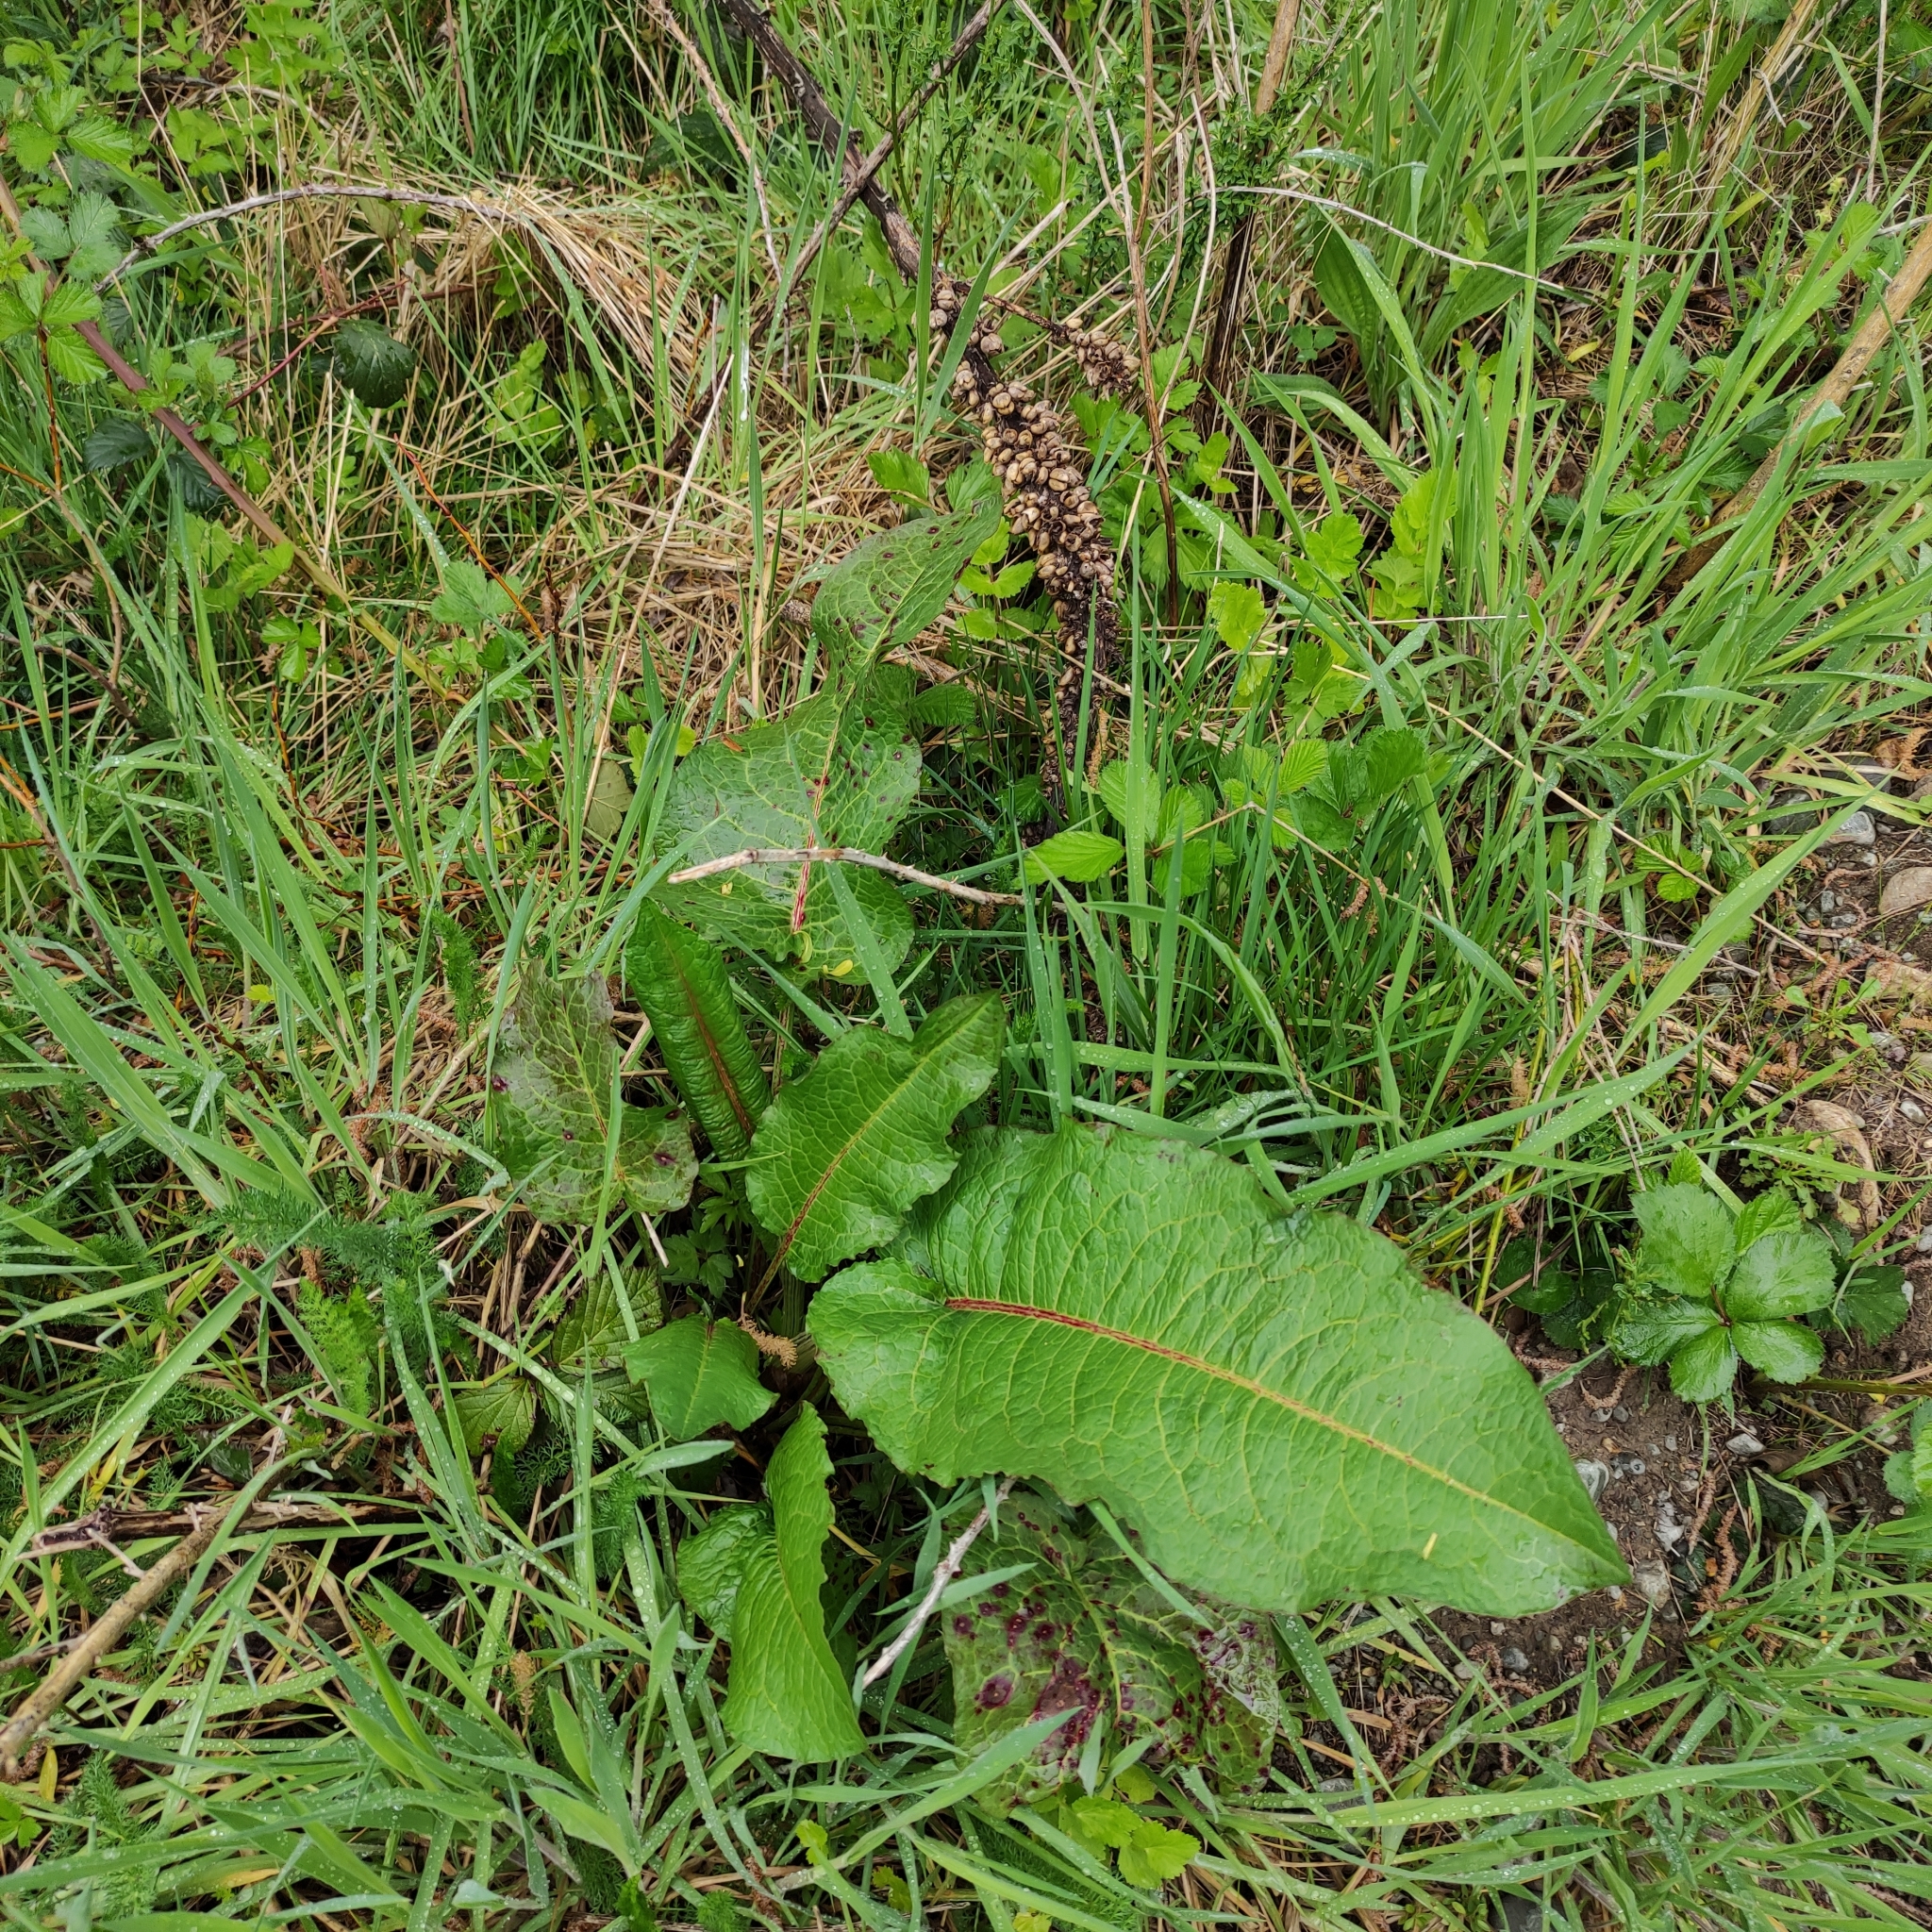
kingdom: Plantae
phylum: Tracheophyta
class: Magnoliopsida
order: Caryophyllales
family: Polygonaceae
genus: Rumex
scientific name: Rumex obtusifolius
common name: Bitter dock
